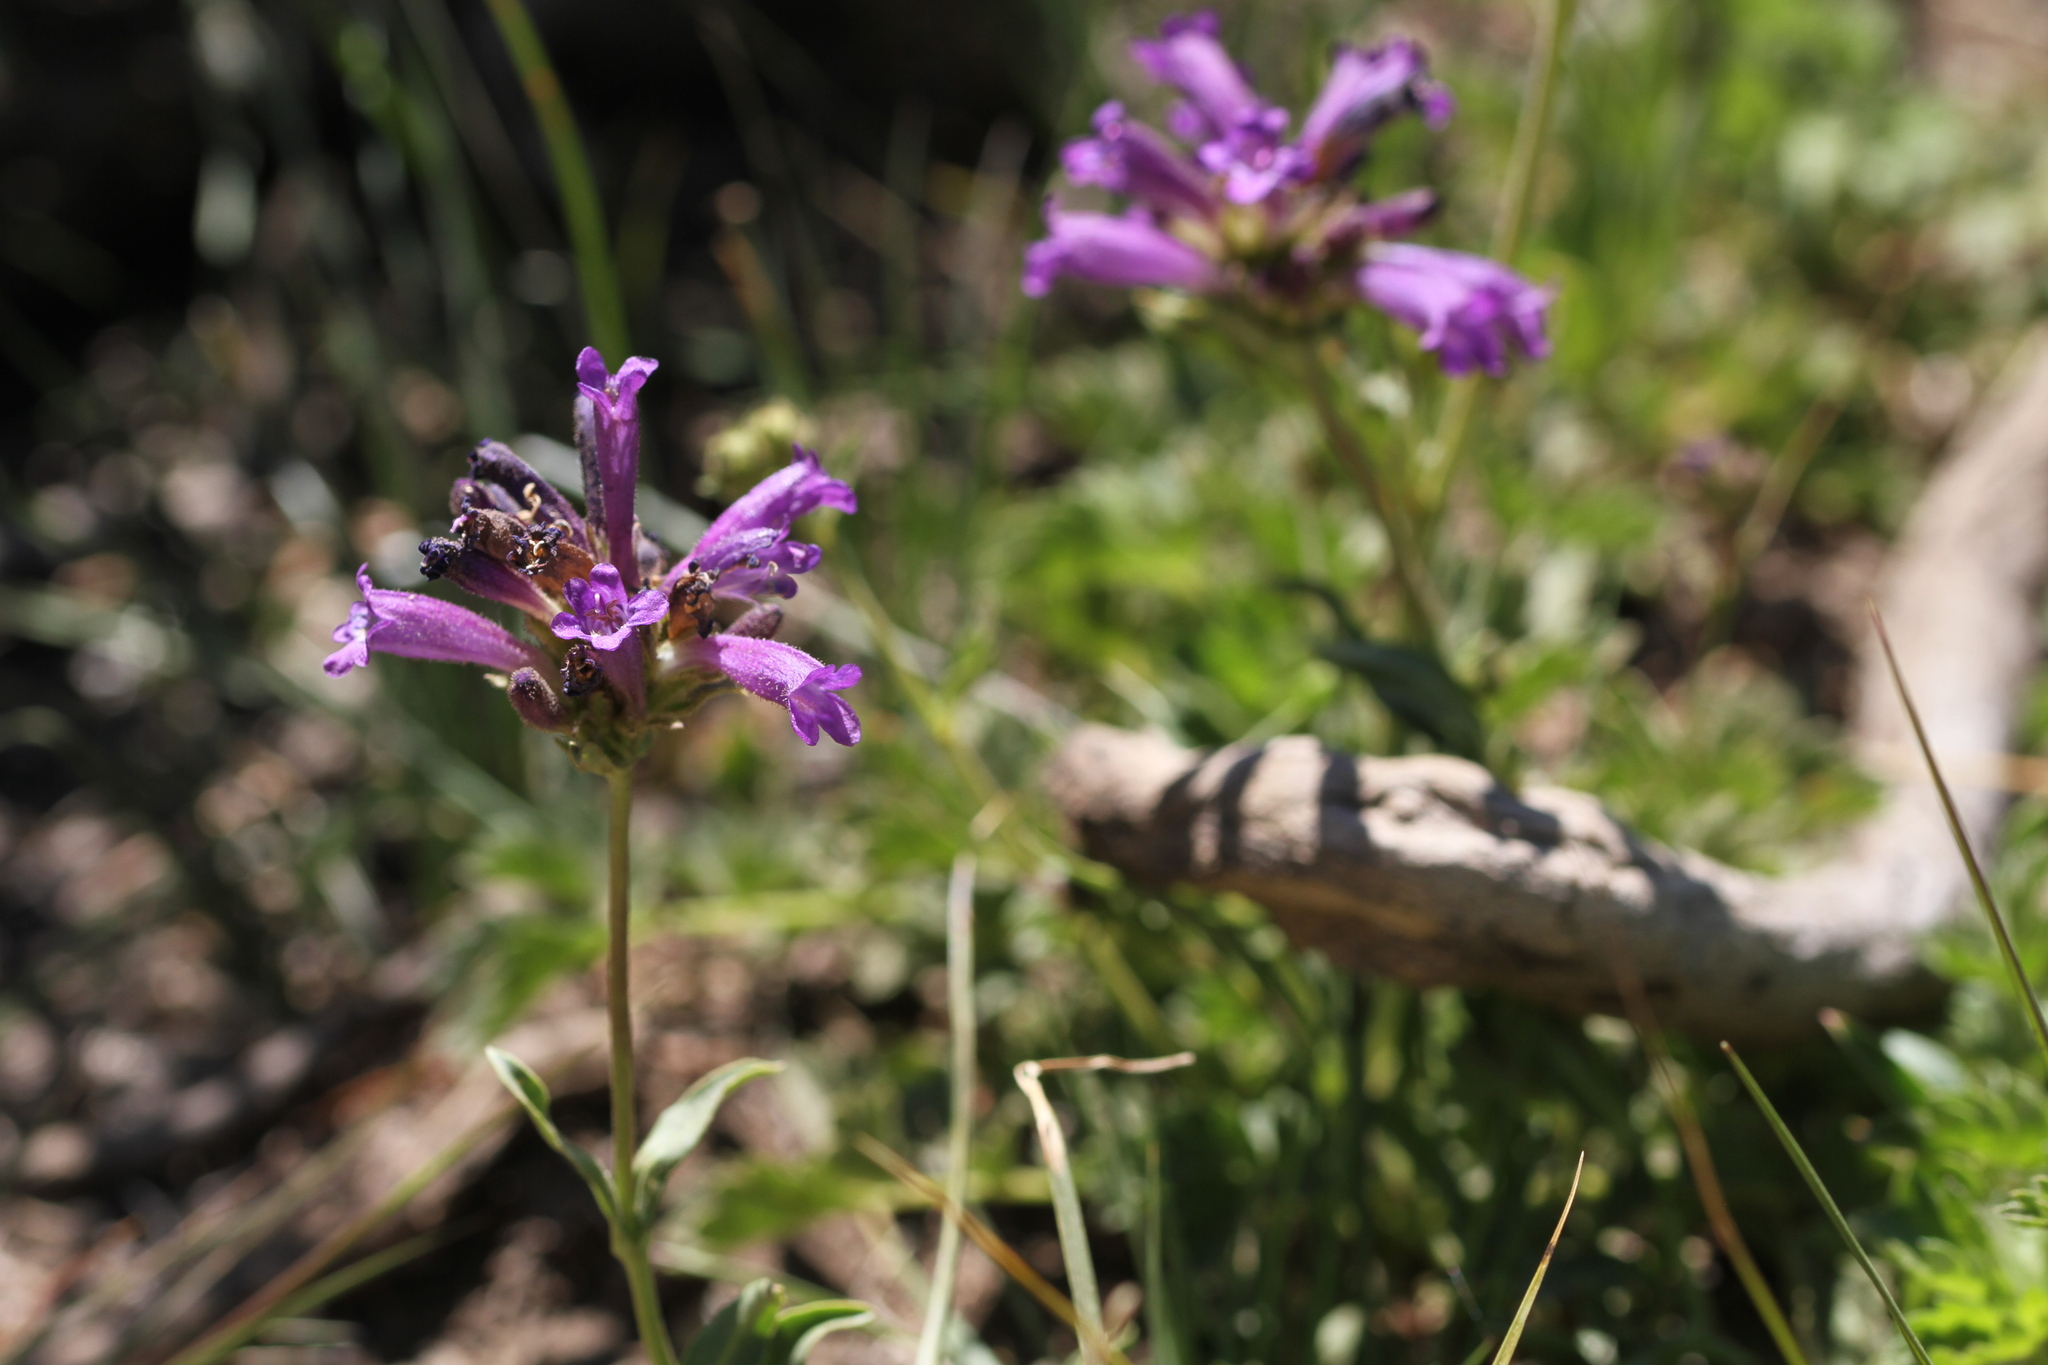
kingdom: Plantae
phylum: Tracheophyta
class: Magnoliopsida
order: Lamiales
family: Plantaginaceae
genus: Penstemon
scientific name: Penstemon heterodoxus
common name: Sierran penstemon
